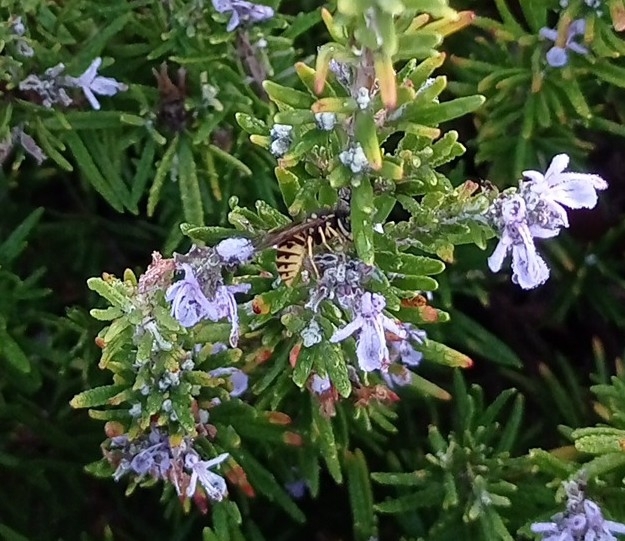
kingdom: Animalia
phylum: Arthropoda
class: Insecta
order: Hymenoptera
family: Vespidae
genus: Vespula
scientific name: Vespula germanica
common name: German wasp
